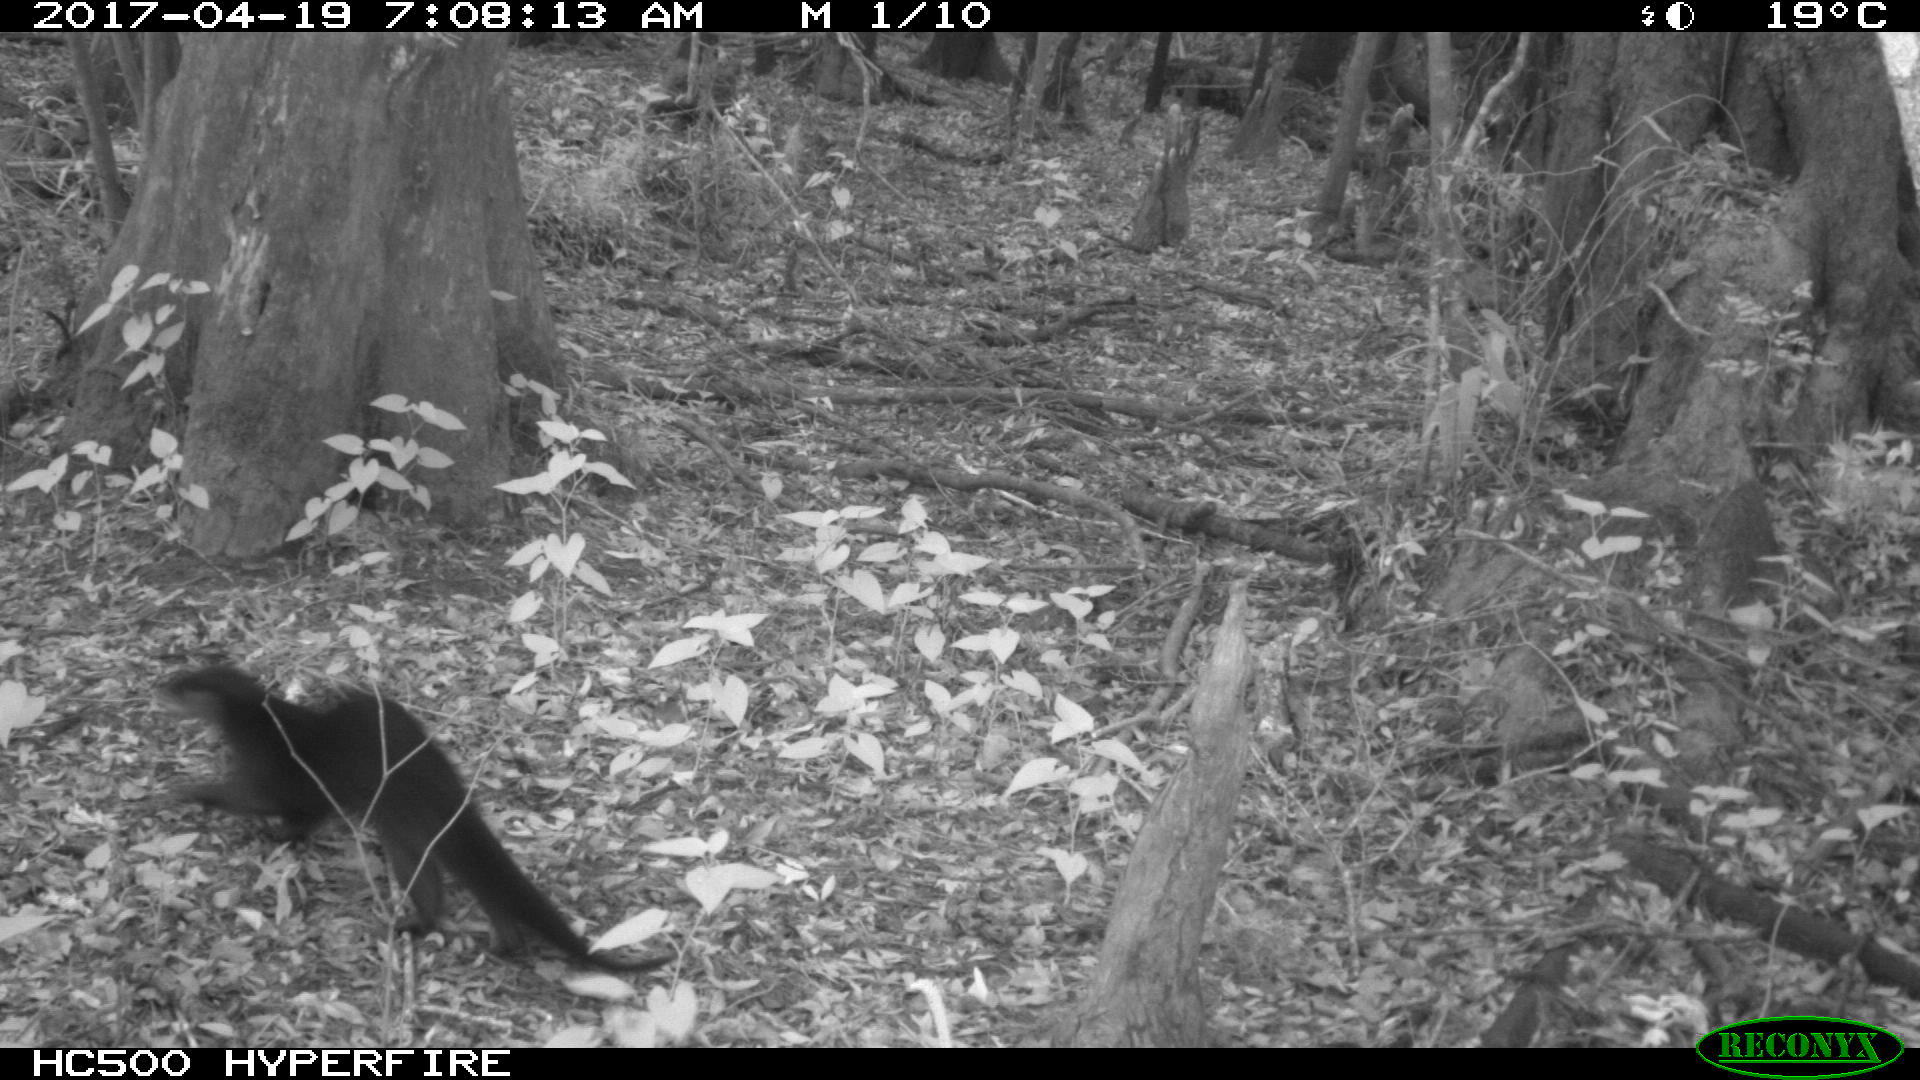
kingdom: Animalia
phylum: Chordata
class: Mammalia
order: Carnivora
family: Mustelidae
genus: Lontra
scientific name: Lontra canadensis
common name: North american river otter
